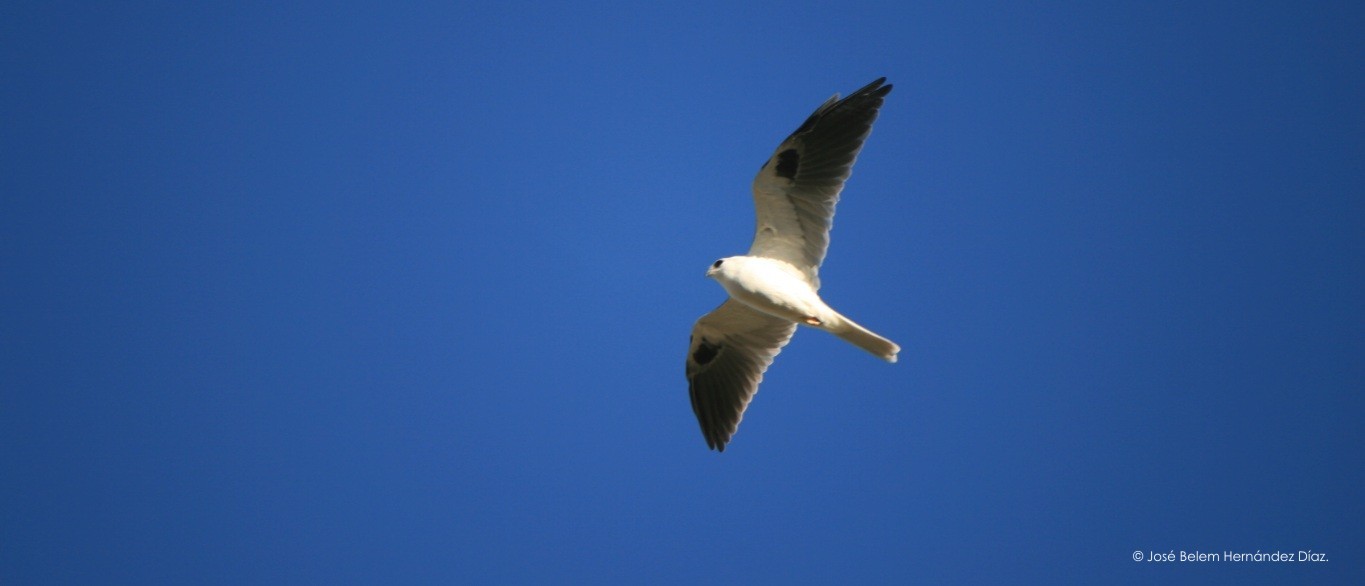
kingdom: Animalia
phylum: Chordata
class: Aves
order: Accipitriformes
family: Accipitridae
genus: Elanus
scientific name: Elanus leucurus
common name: White-tailed kite
